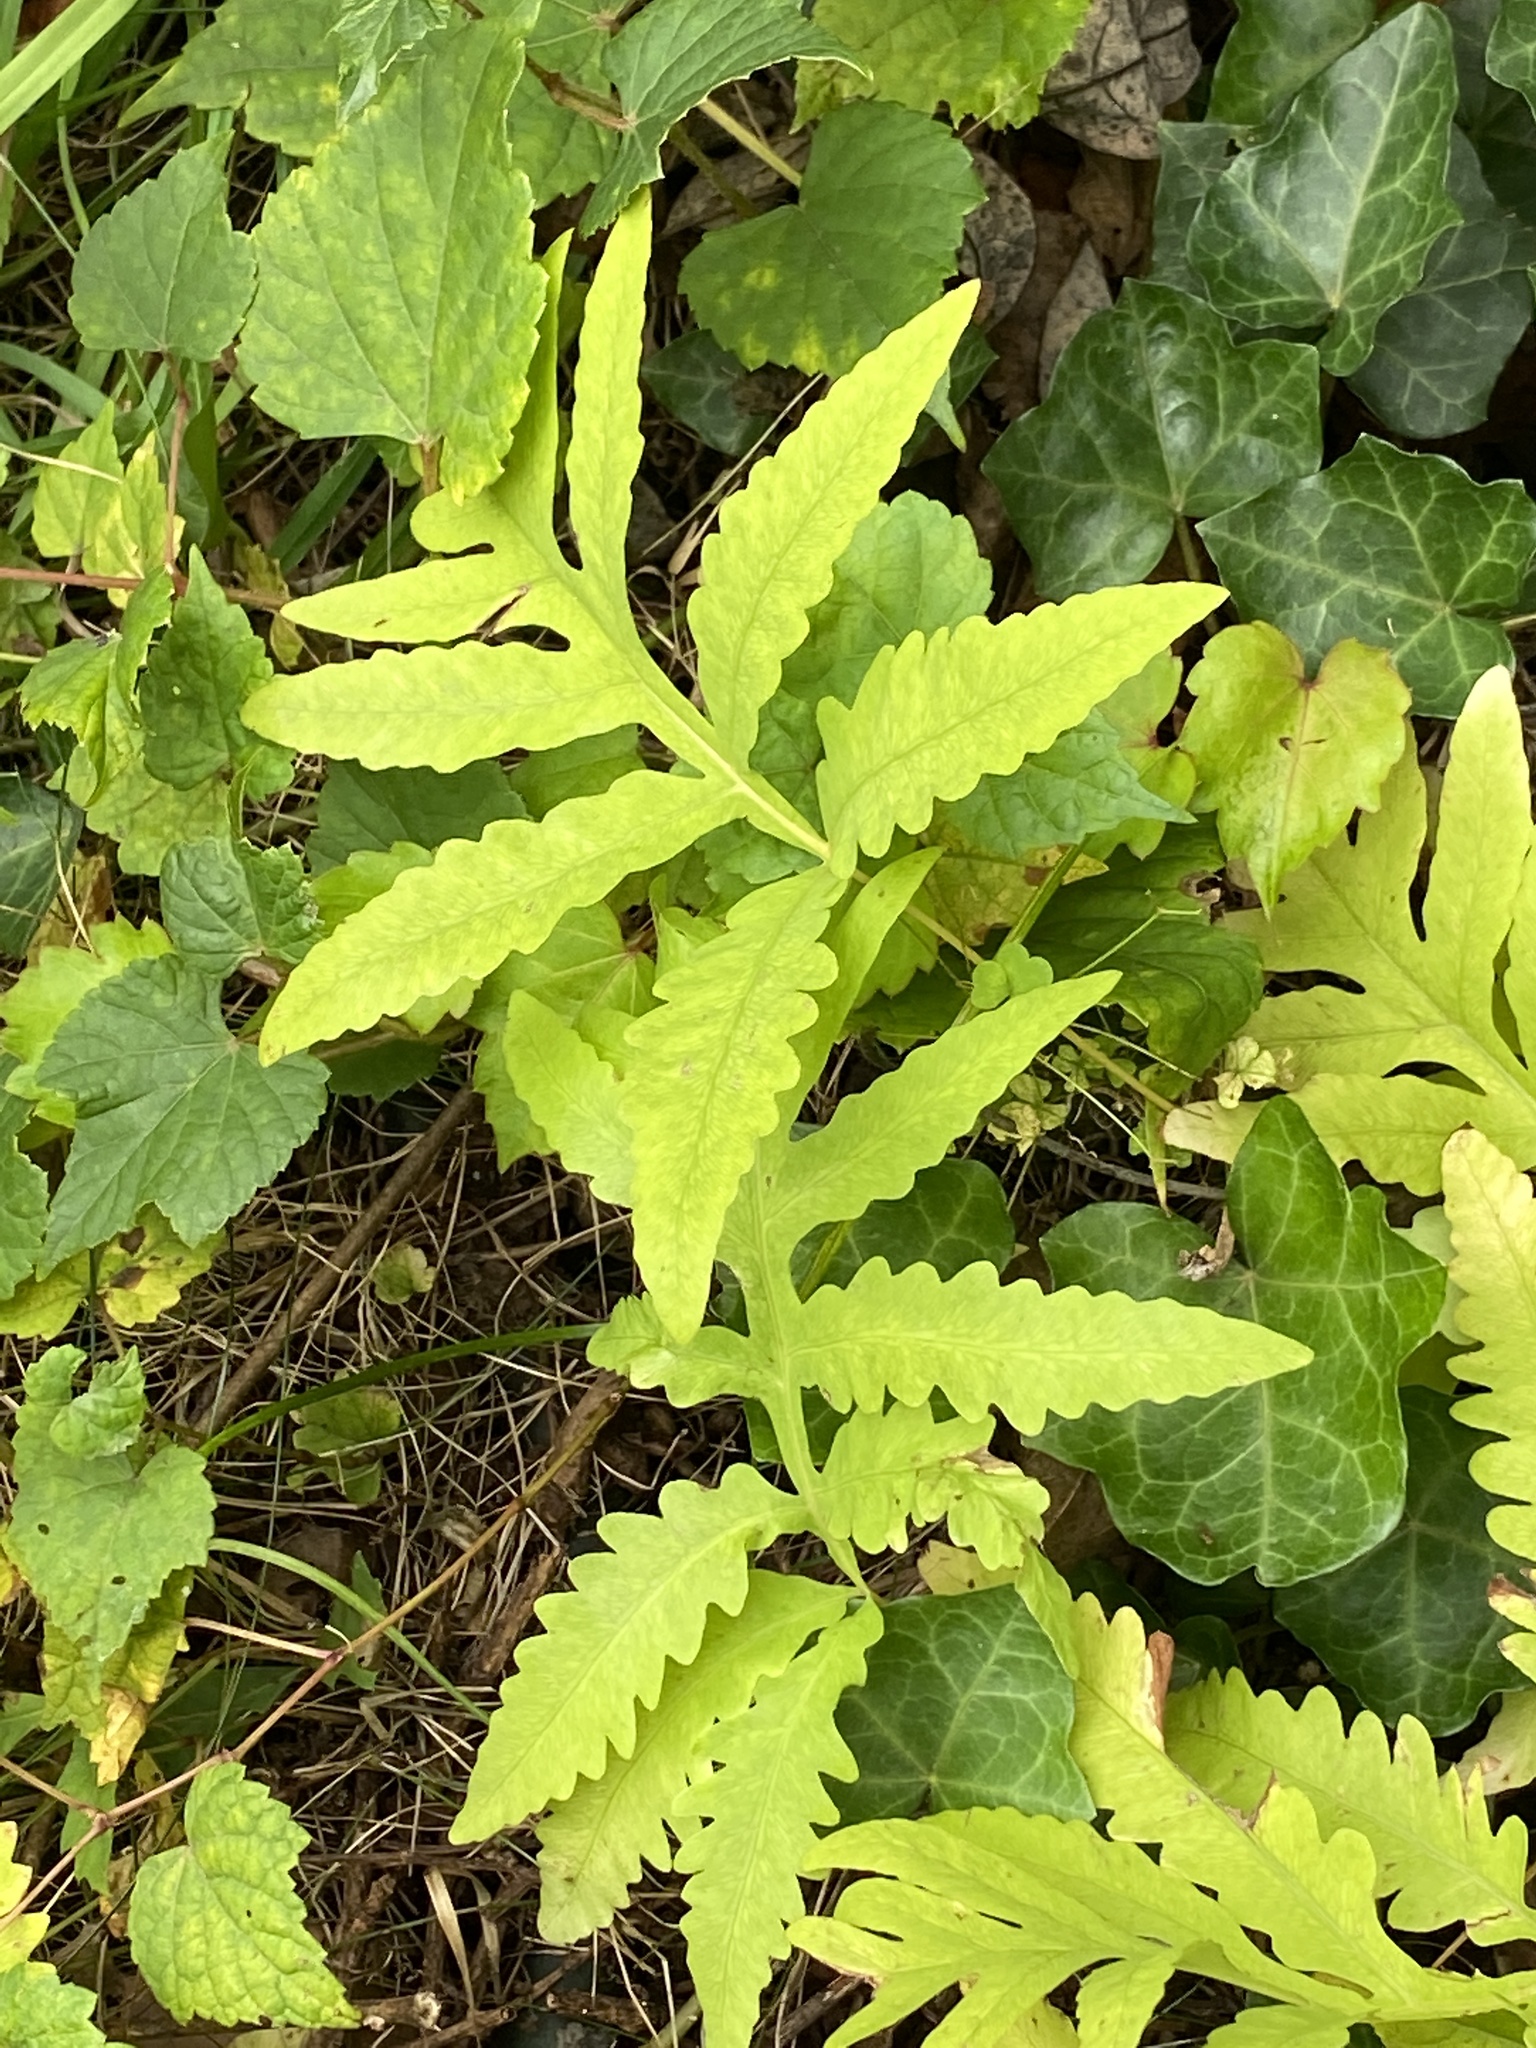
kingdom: Plantae
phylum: Tracheophyta
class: Polypodiopsida
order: Polypodiales
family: Onocleaceae
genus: Onoclea
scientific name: Onoclea sensibilis
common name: Sensitive fern
